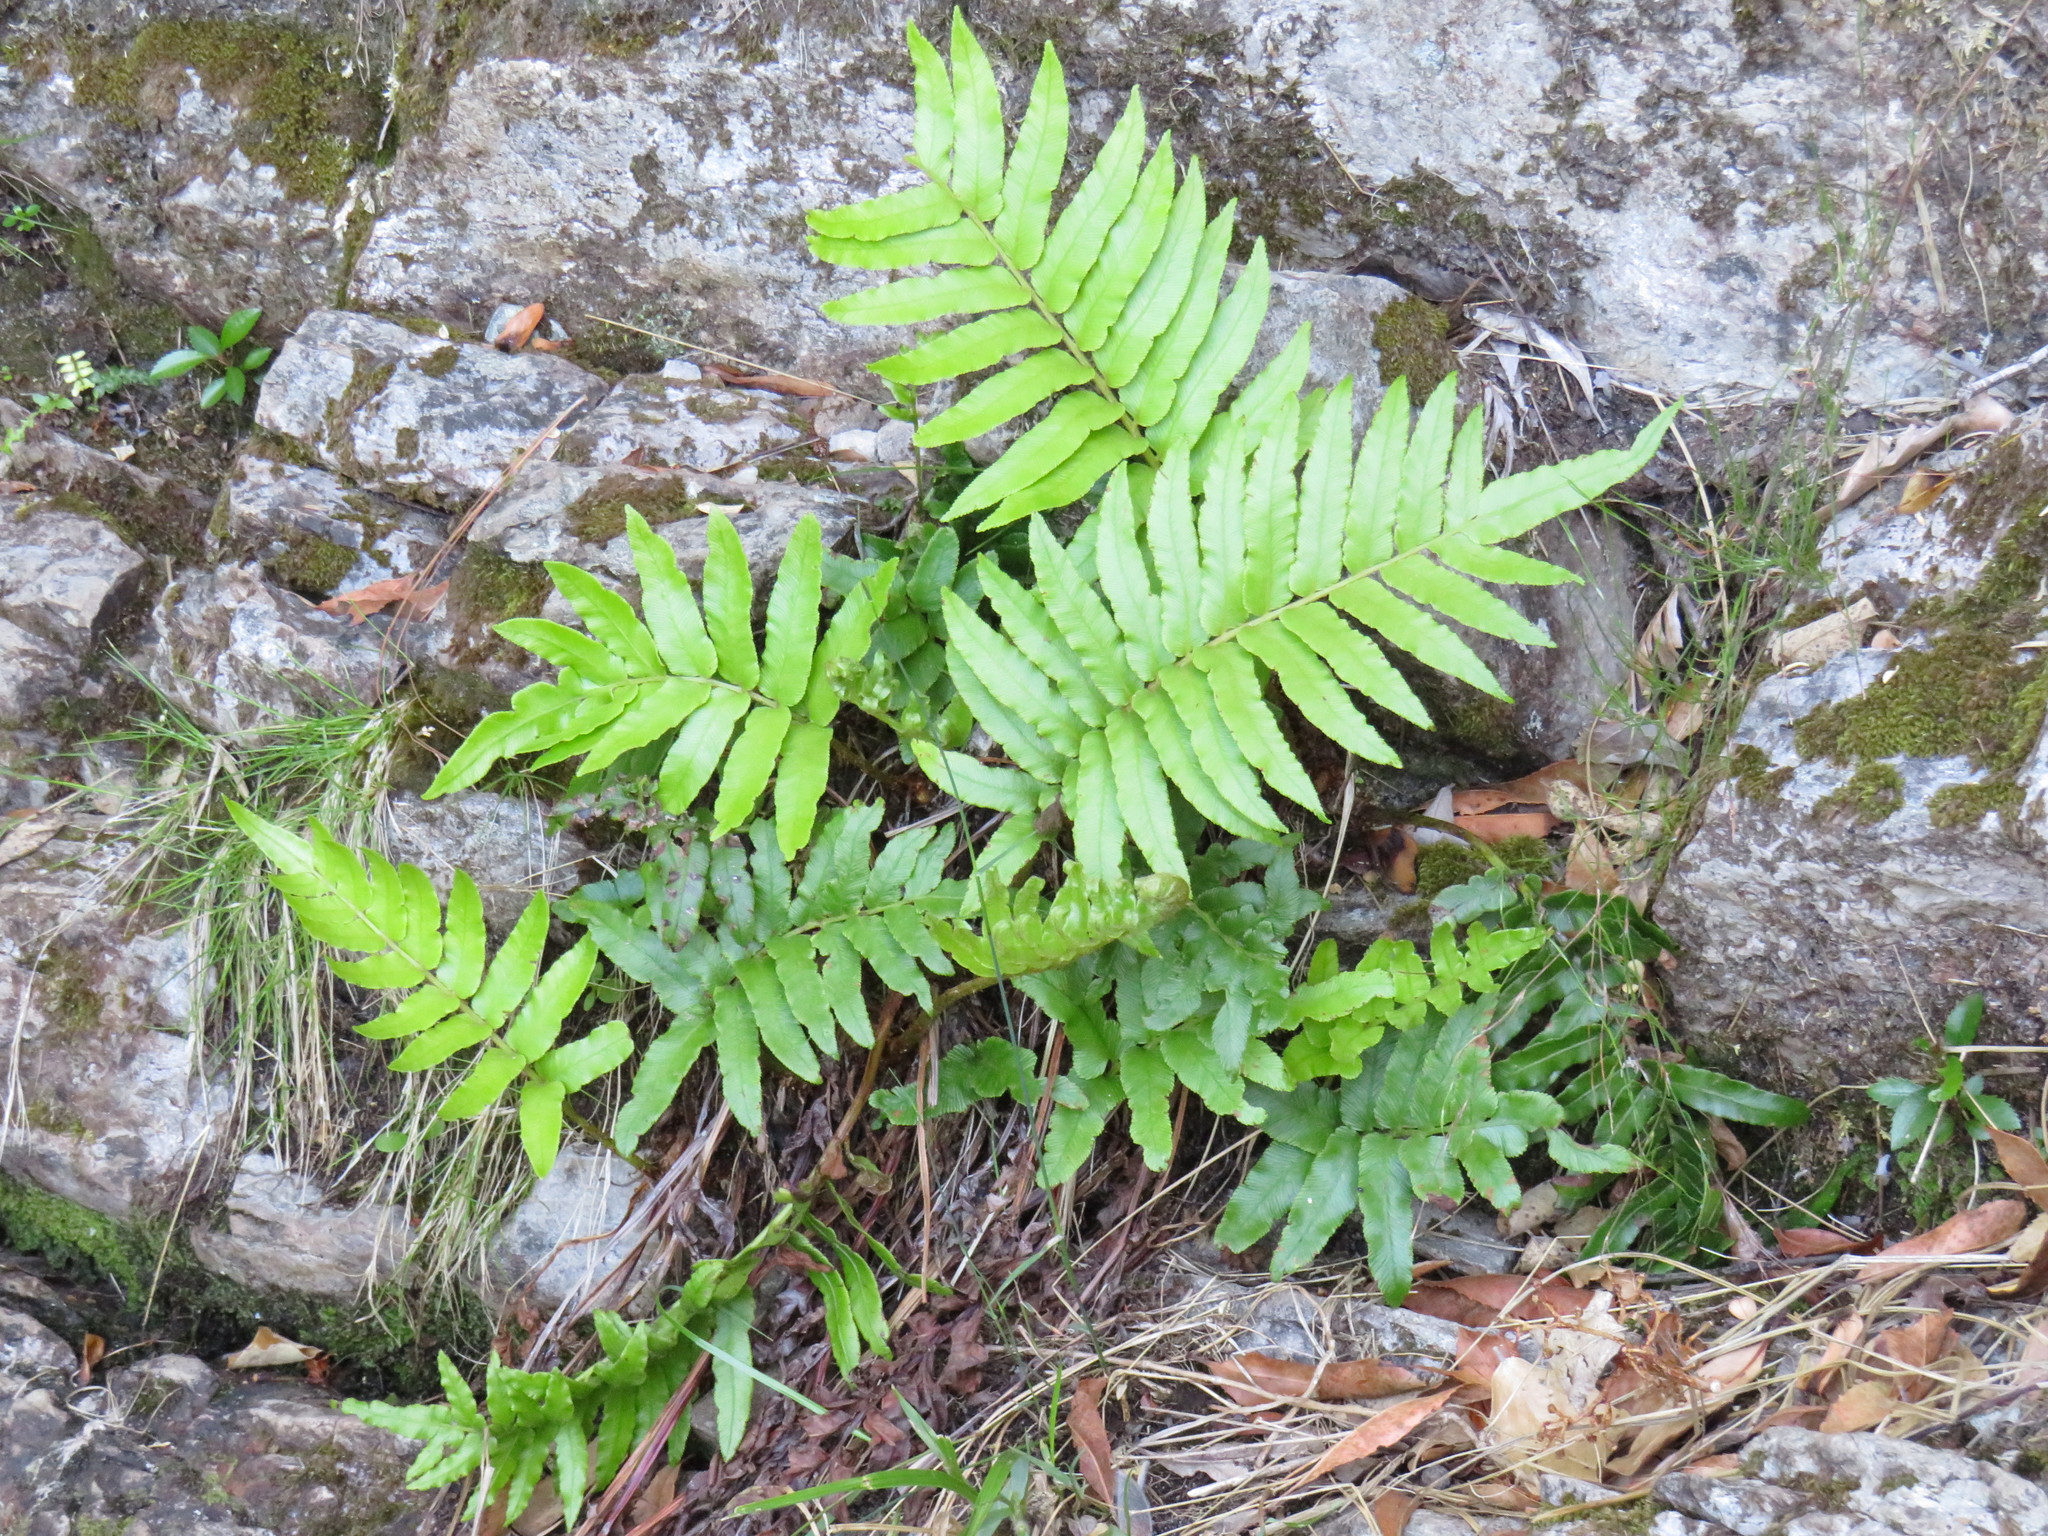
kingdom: Plantae
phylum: Tracheophyta
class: Polypodiopsida
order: Polypodiales
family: Blechnaceae
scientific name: Blechnaceae
